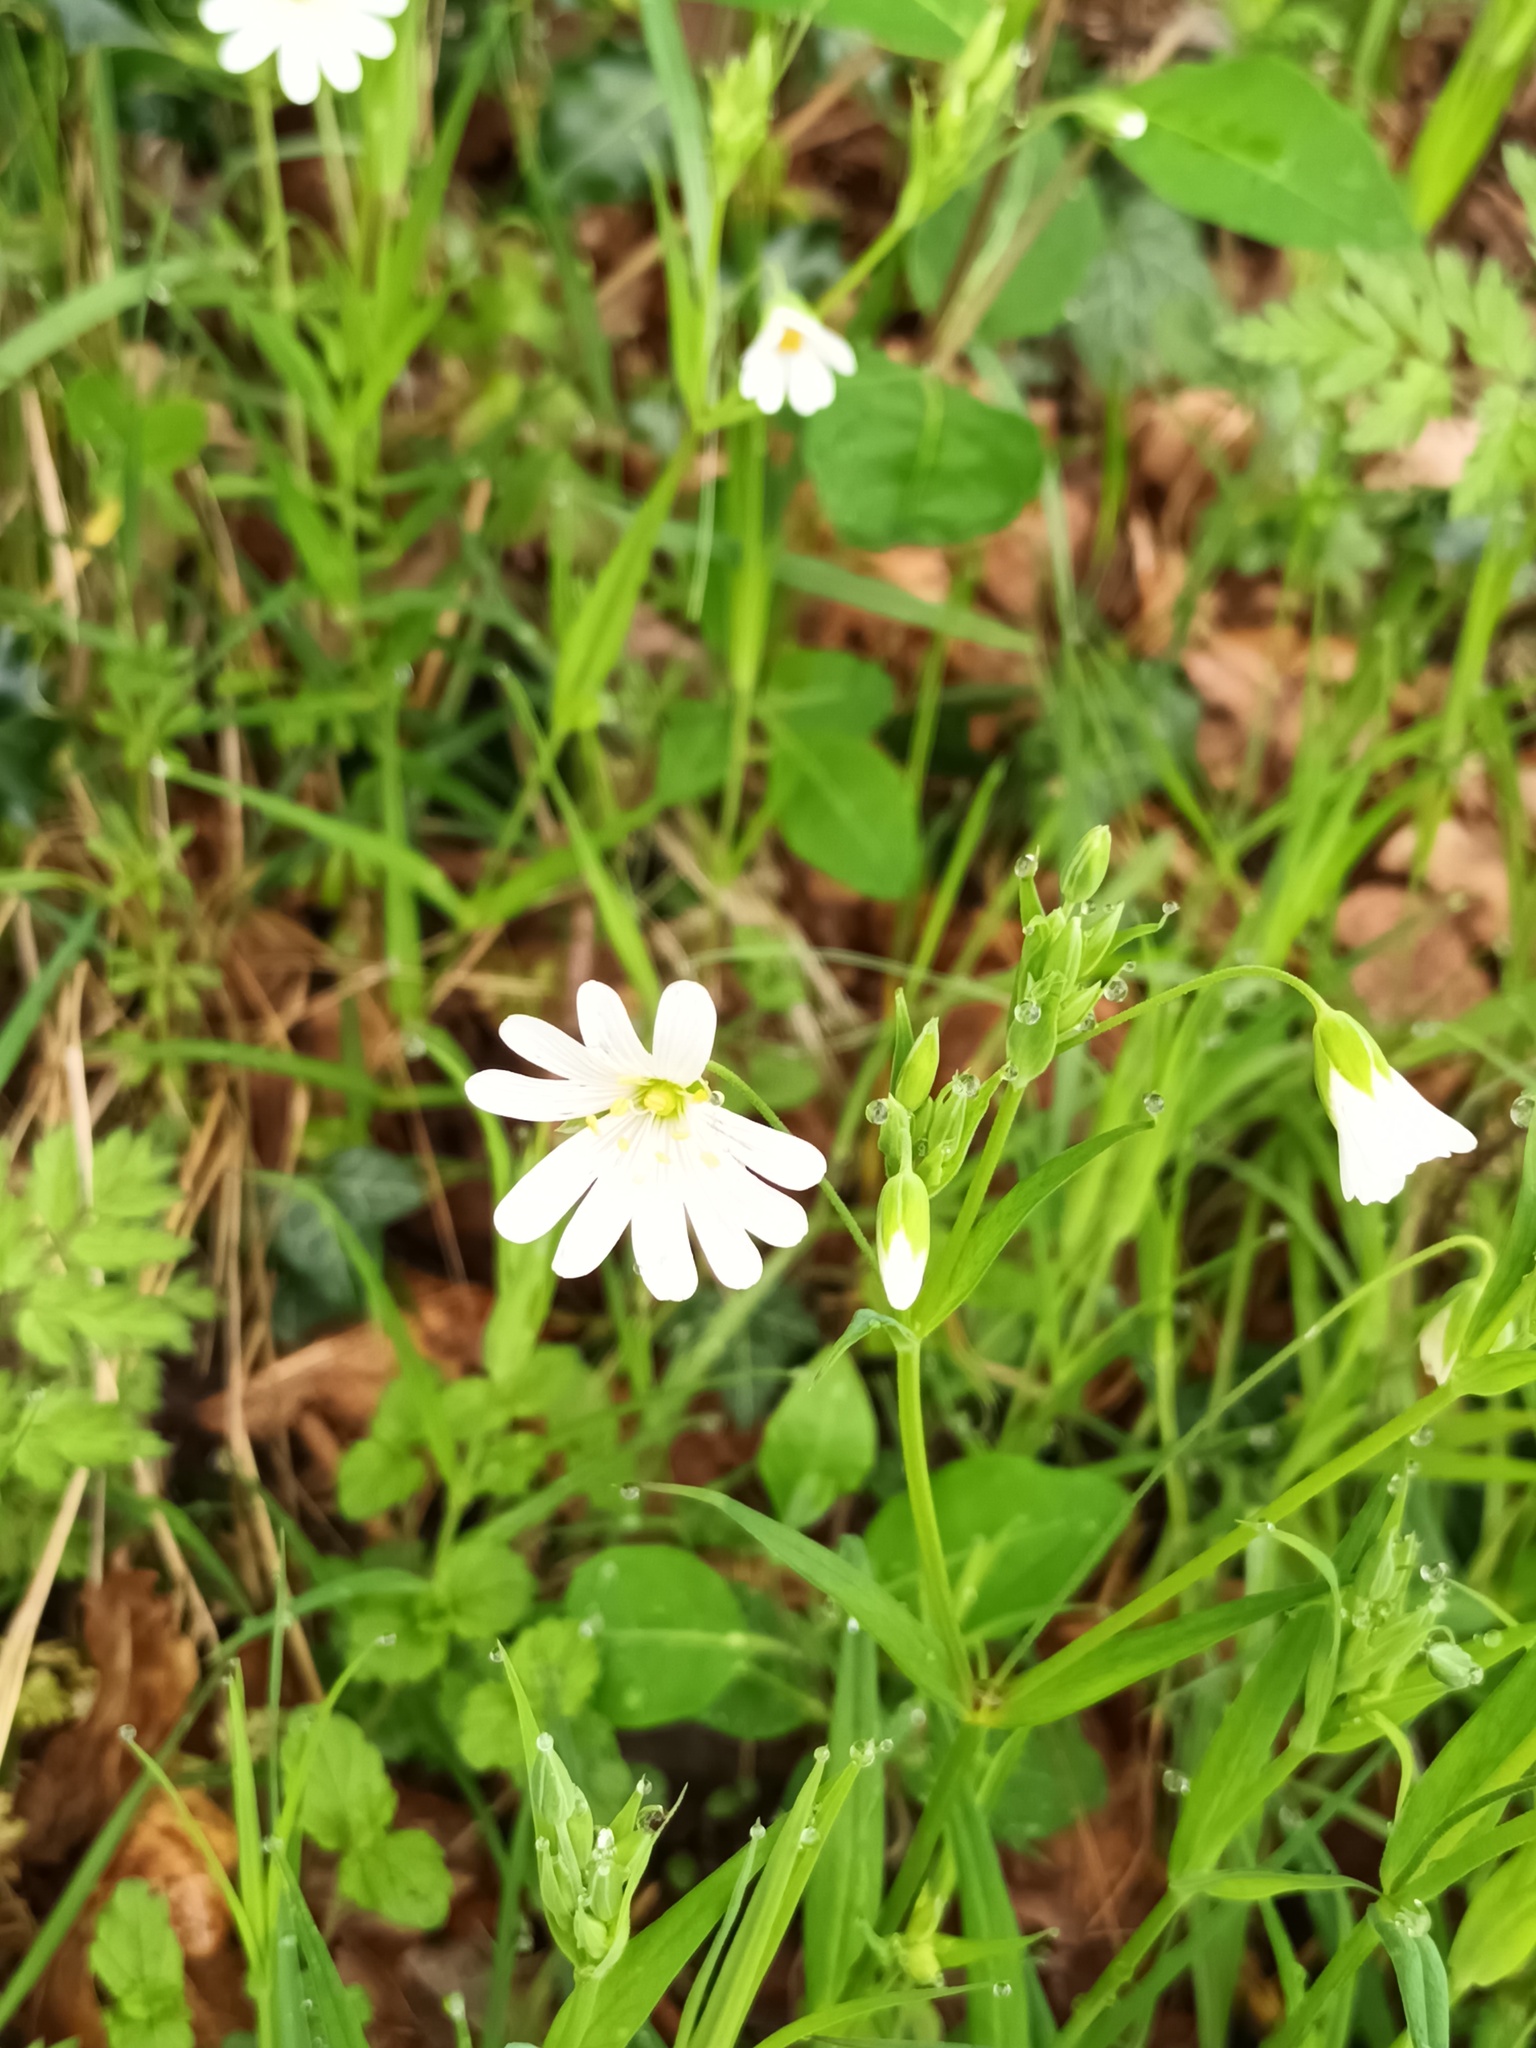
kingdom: Plantae
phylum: Tracheophyta
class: Magnoliopsida
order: Caryophyllales
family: Caryophyllaceae
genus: Rabelera
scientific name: Rabelera holostea
